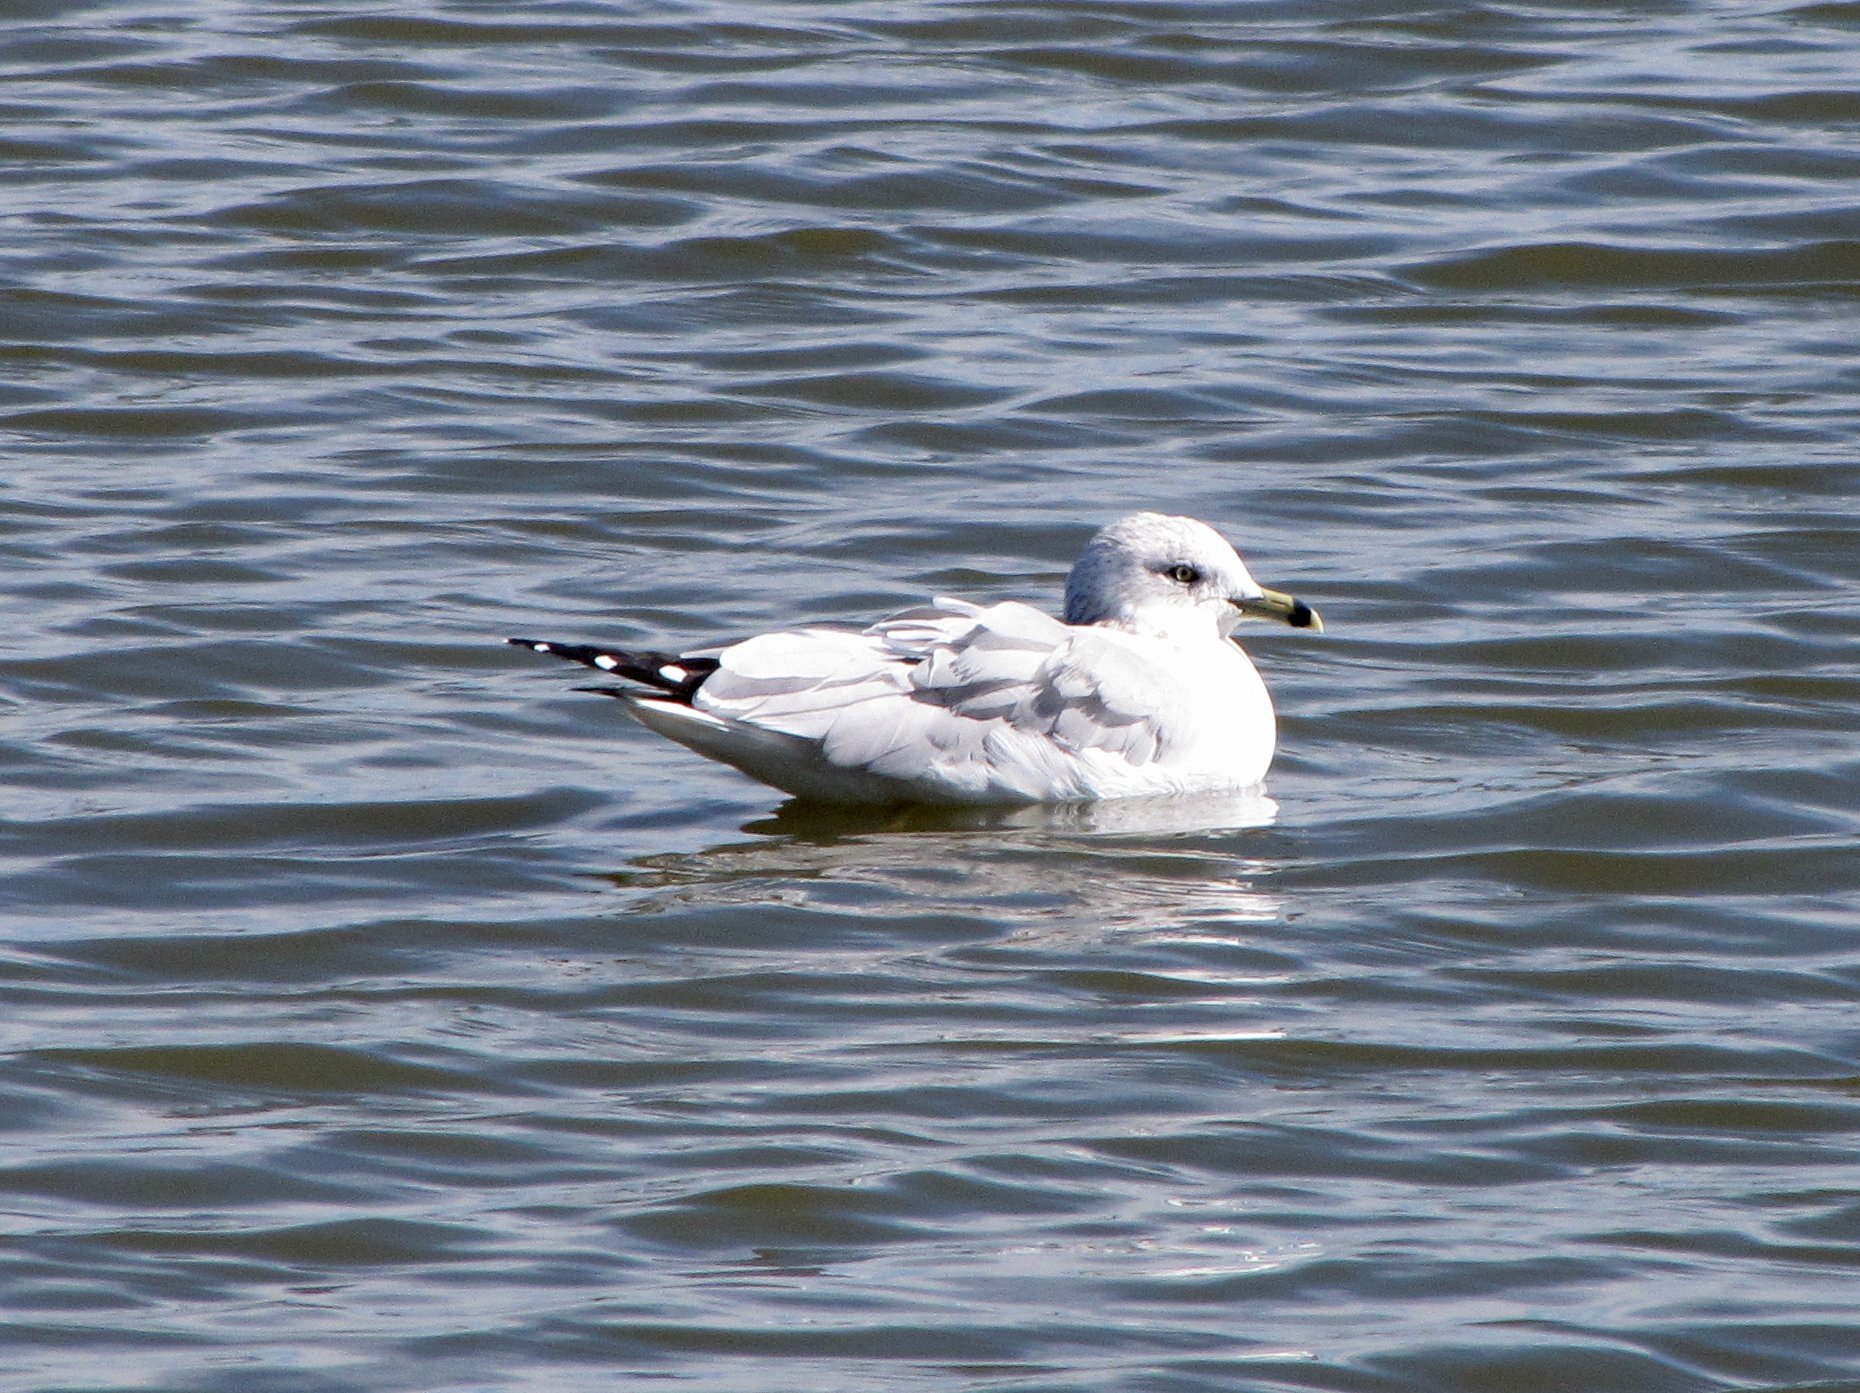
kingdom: Animalia
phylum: Chordata
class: Aves
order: Charadriiformes
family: Laridae
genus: Larus
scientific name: Larus delawarensis
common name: Ring-billed gull
